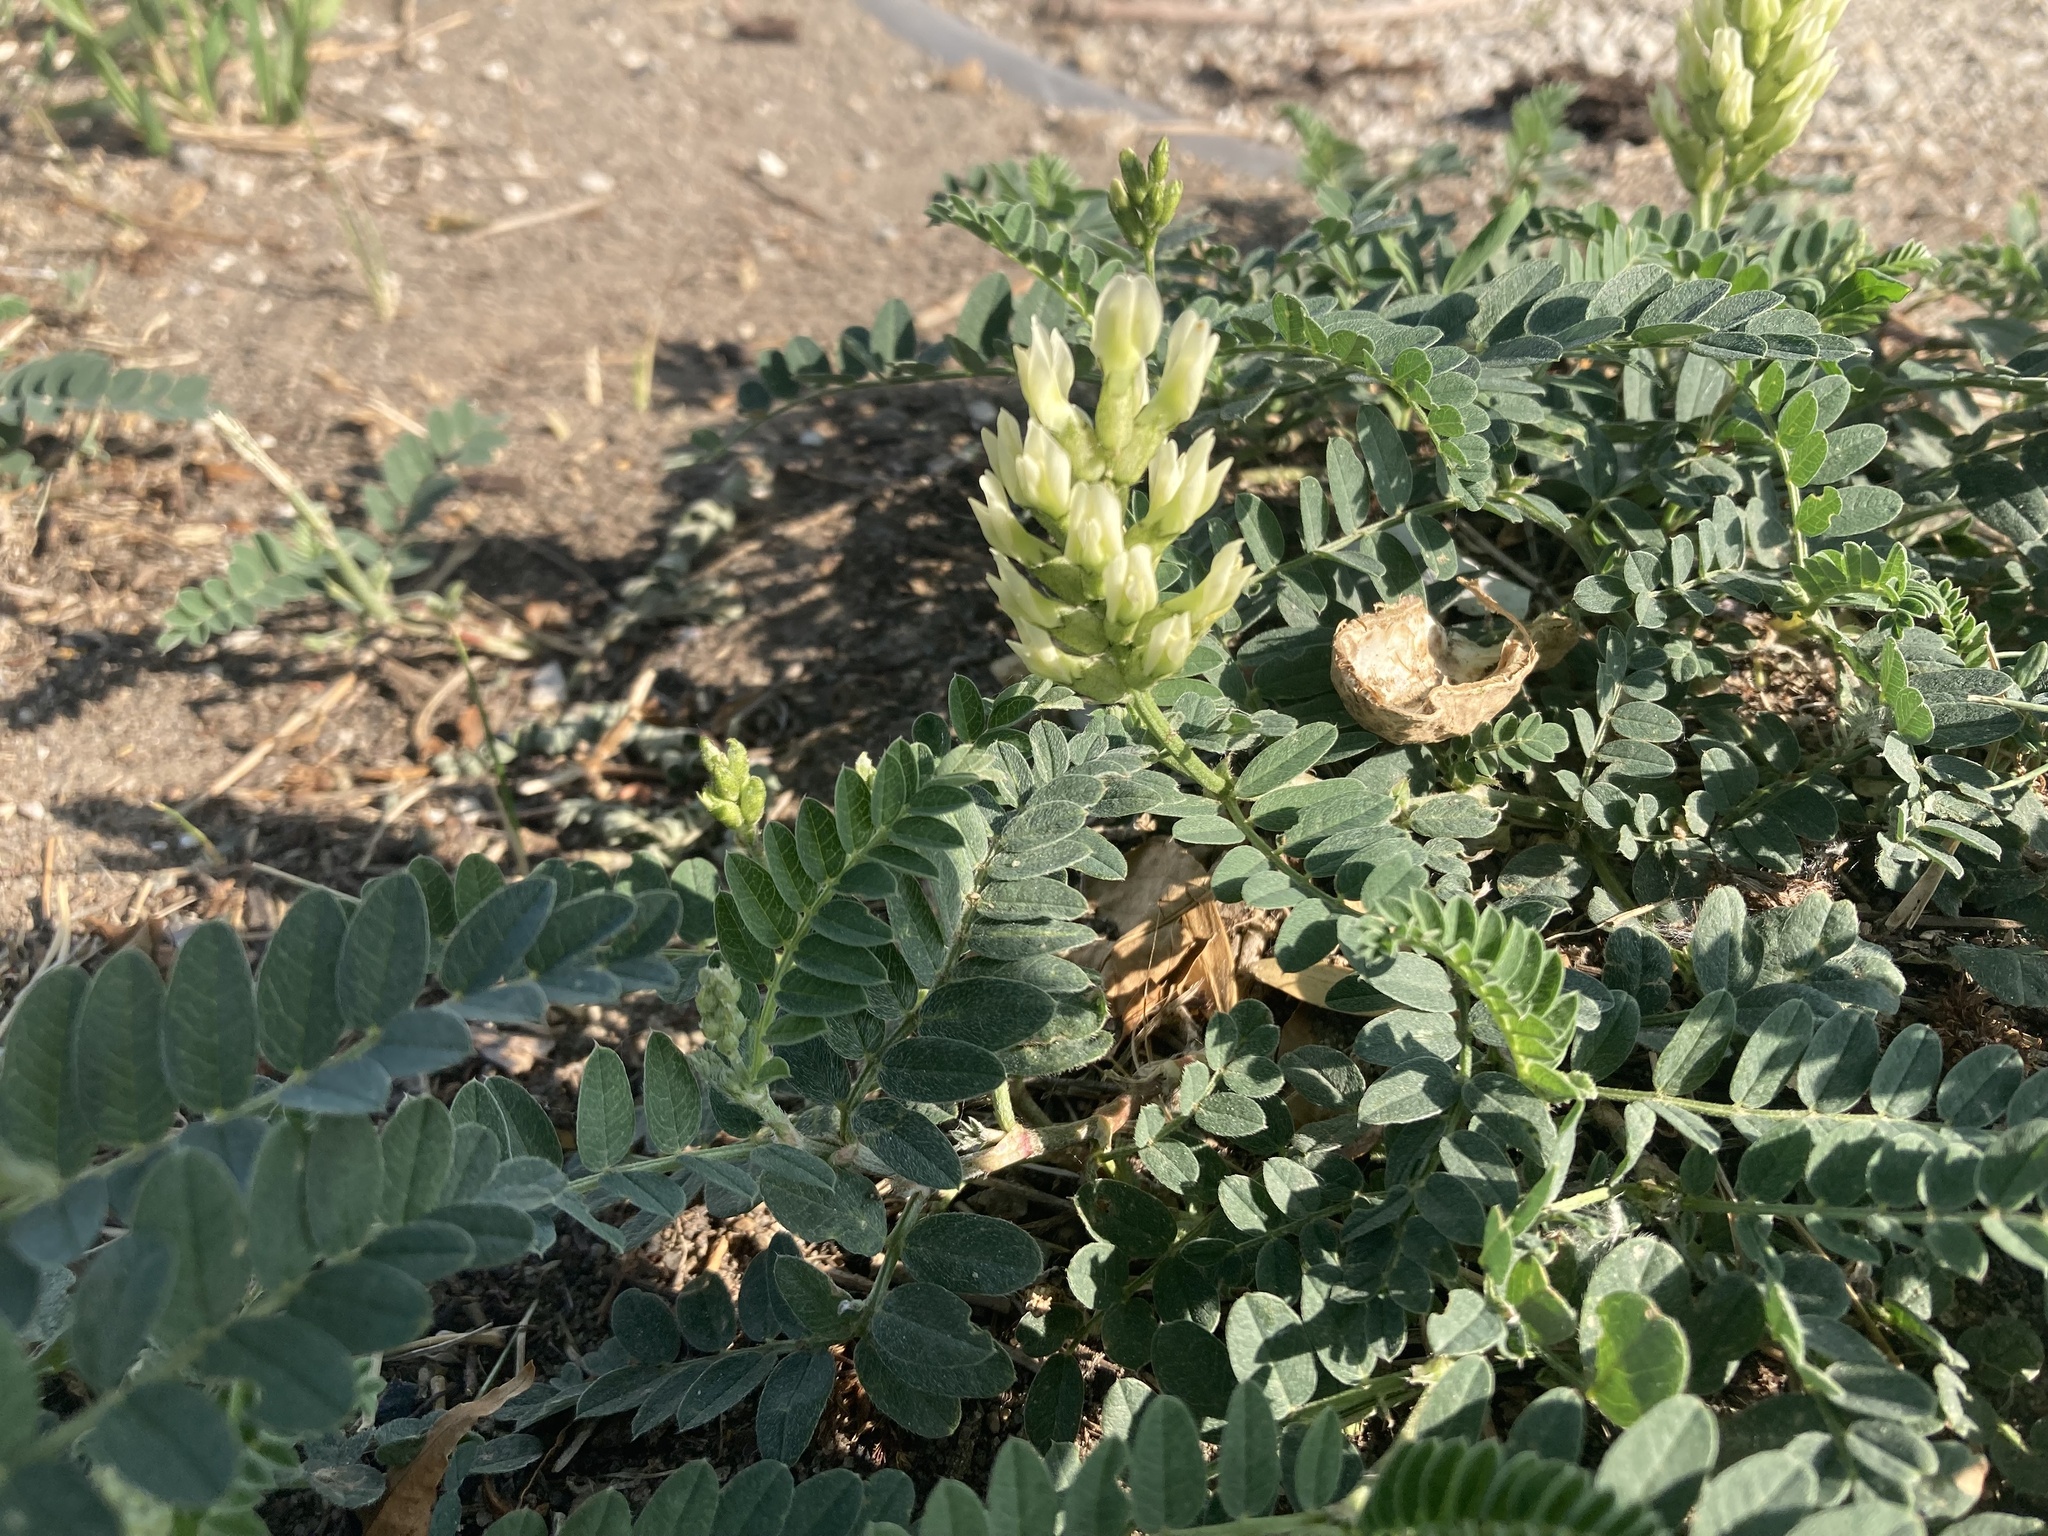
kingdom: Plantae
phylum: Tracheophyta
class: Magnoliopsida
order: Fabales
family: Fabaceae
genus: Astragalus
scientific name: Astragalus cicer
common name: Chick-pea milk-vetch
